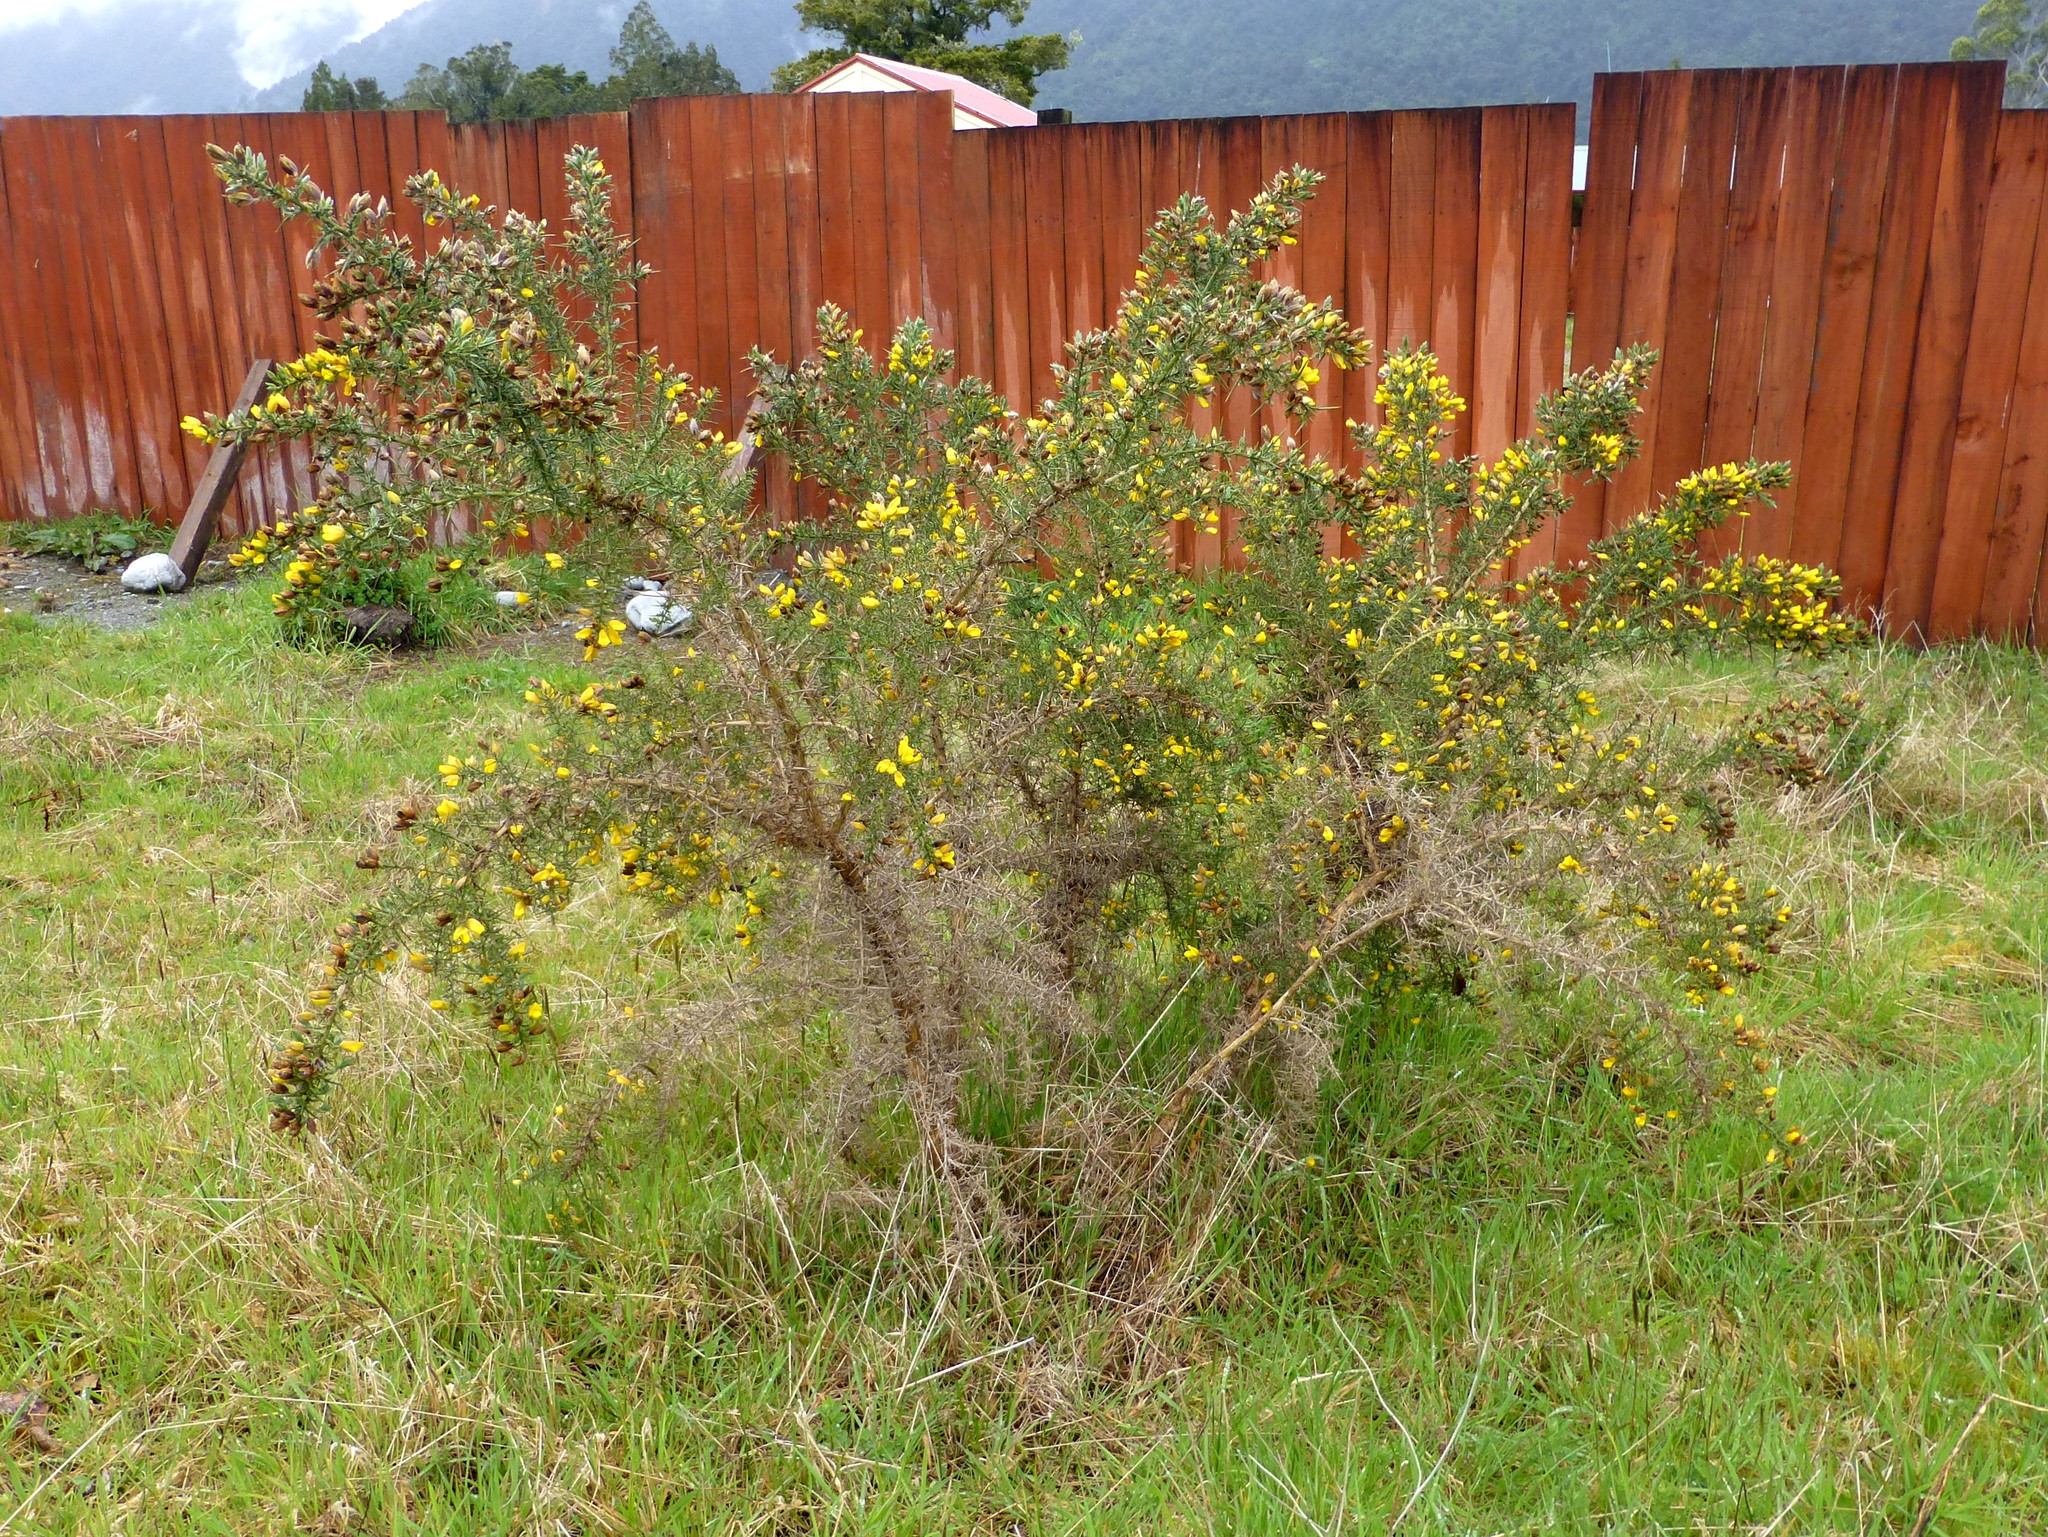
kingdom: Plantae
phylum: Tracheophyta
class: Magnoliopsida
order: Fabales
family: Fabaceae
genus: Ulex
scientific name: Ulex europaeus
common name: Common gorse
